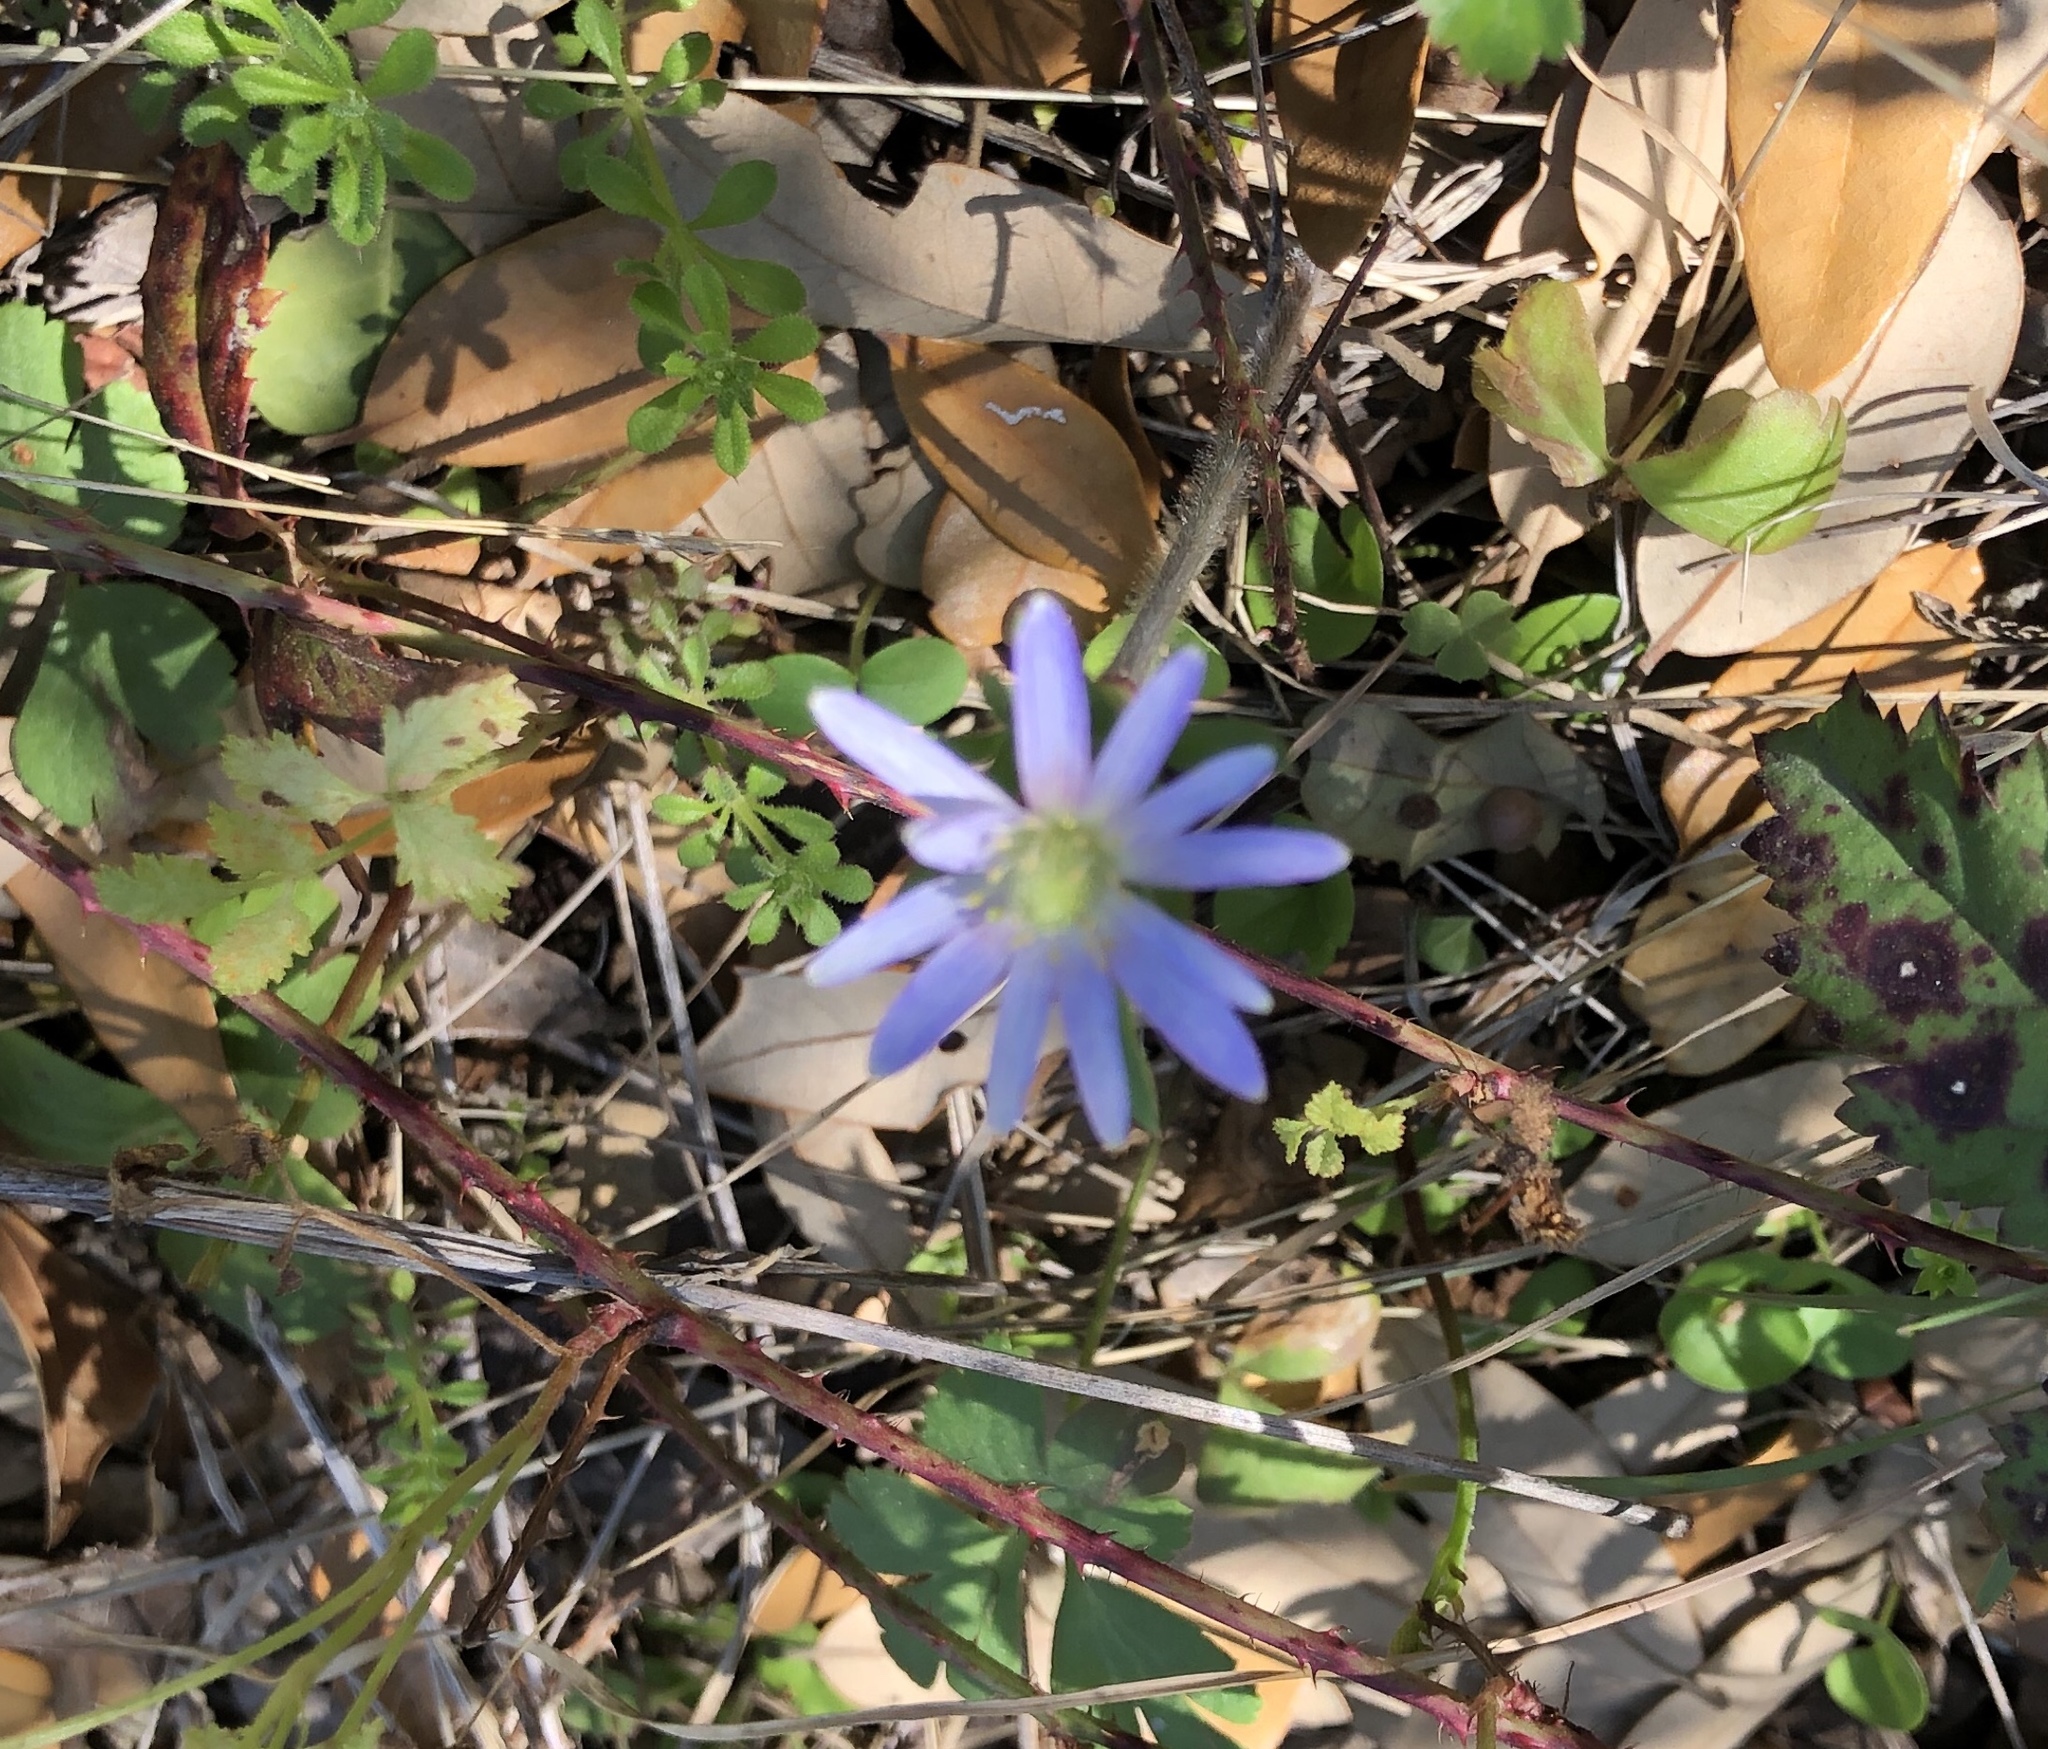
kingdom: Plantae
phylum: Tracheophyta
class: Magnoliopsida
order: Ranunculales
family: Ranunculaceae
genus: Anemone
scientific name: Anemone berlandieri
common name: Ten-petal anemone
